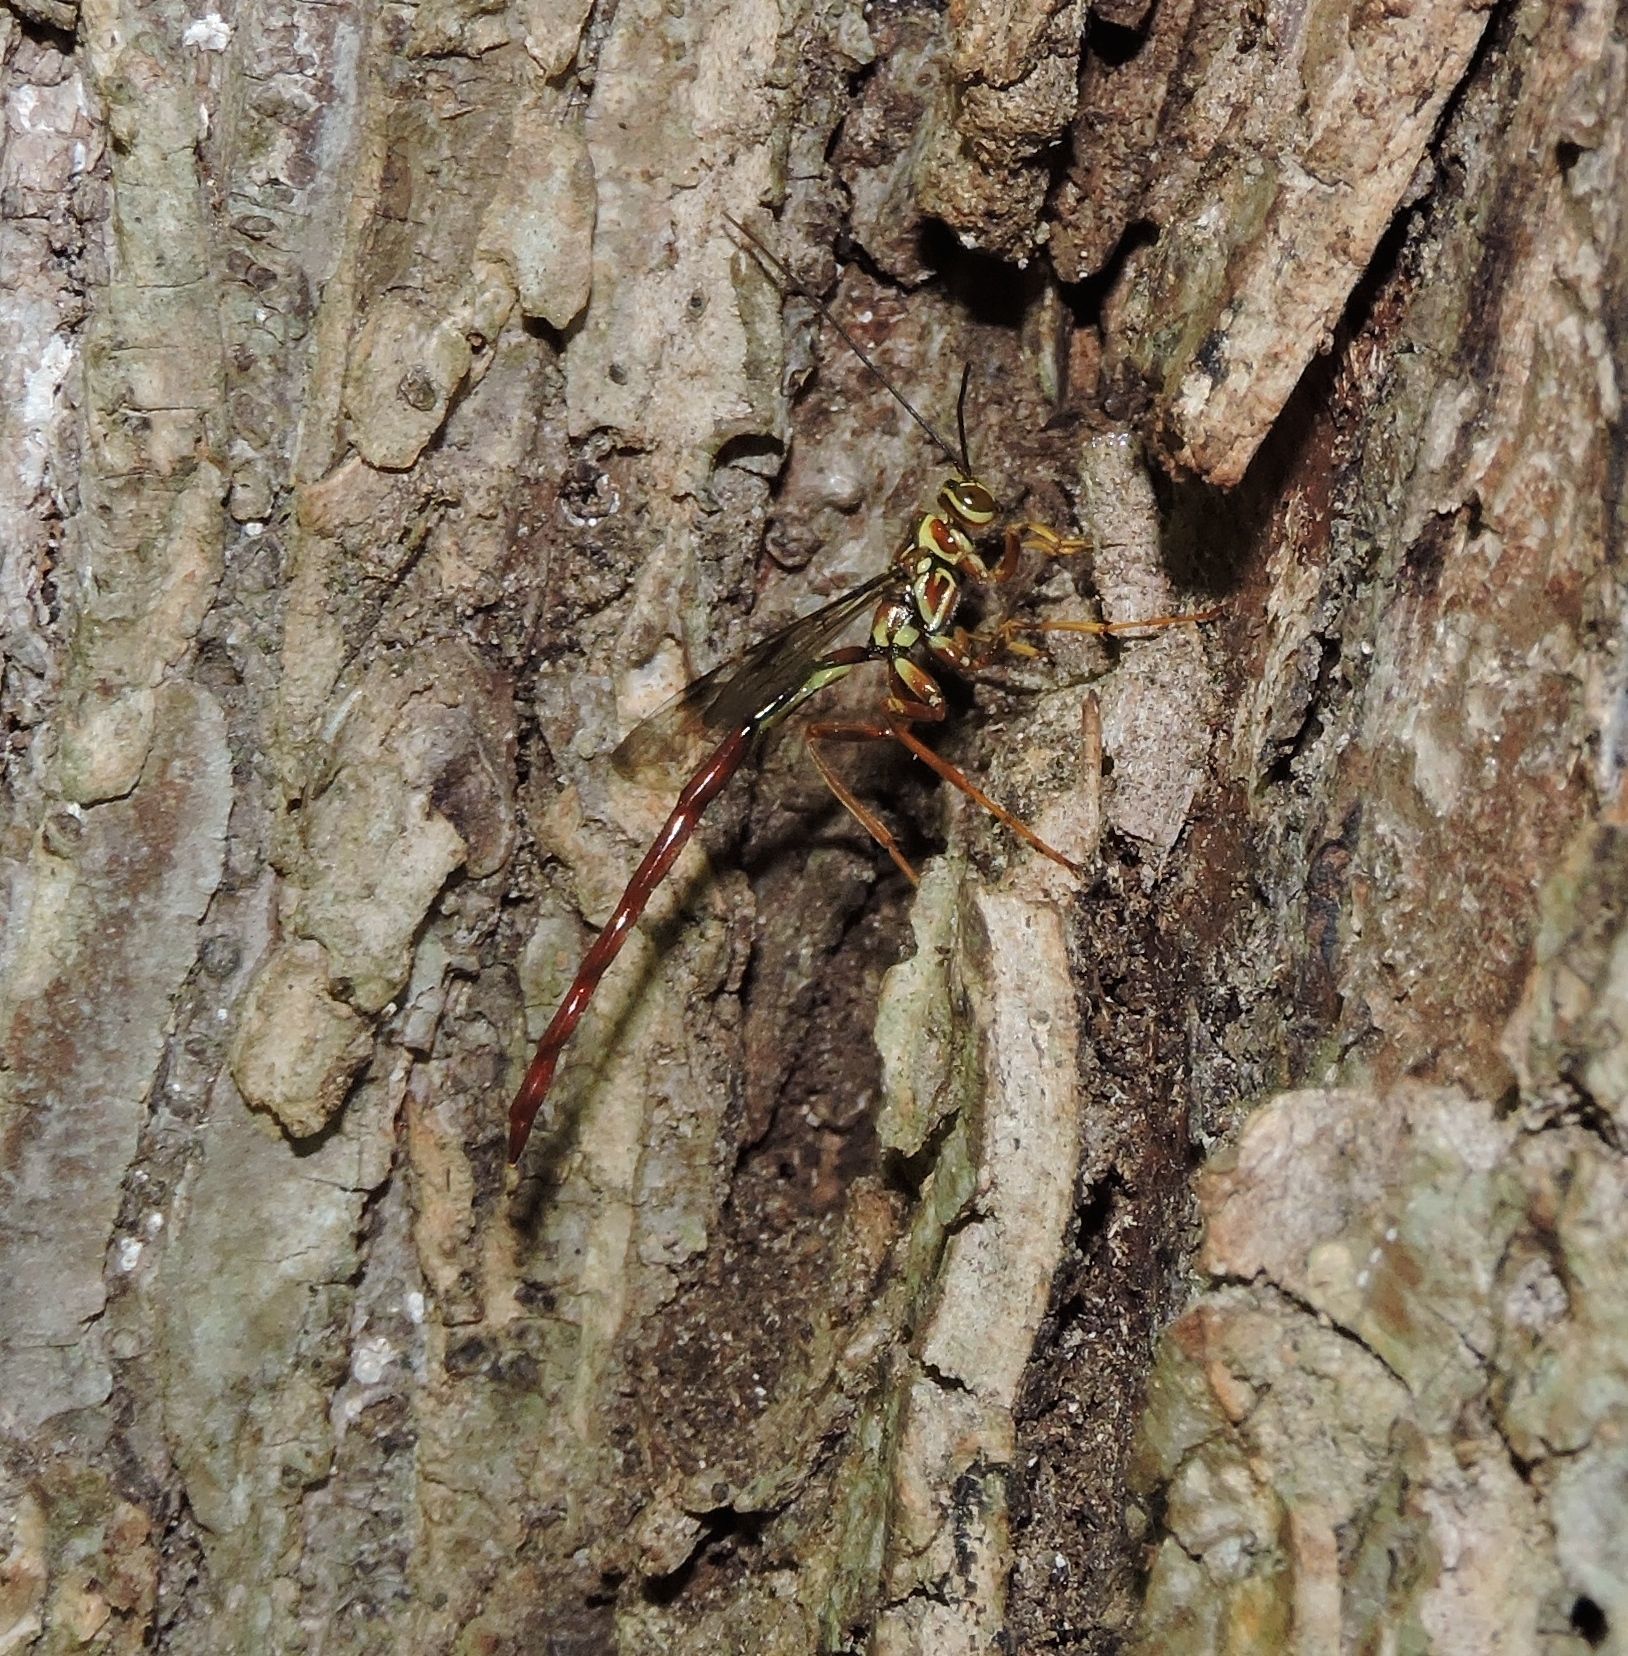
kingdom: Animalia
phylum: Arthropoda
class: Insecta
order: Hymenoptera
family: Ichneumonidae
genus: Megarhyssa
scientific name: Megarhyssa macrura
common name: Long-tailed giant ichneumonid wasp
